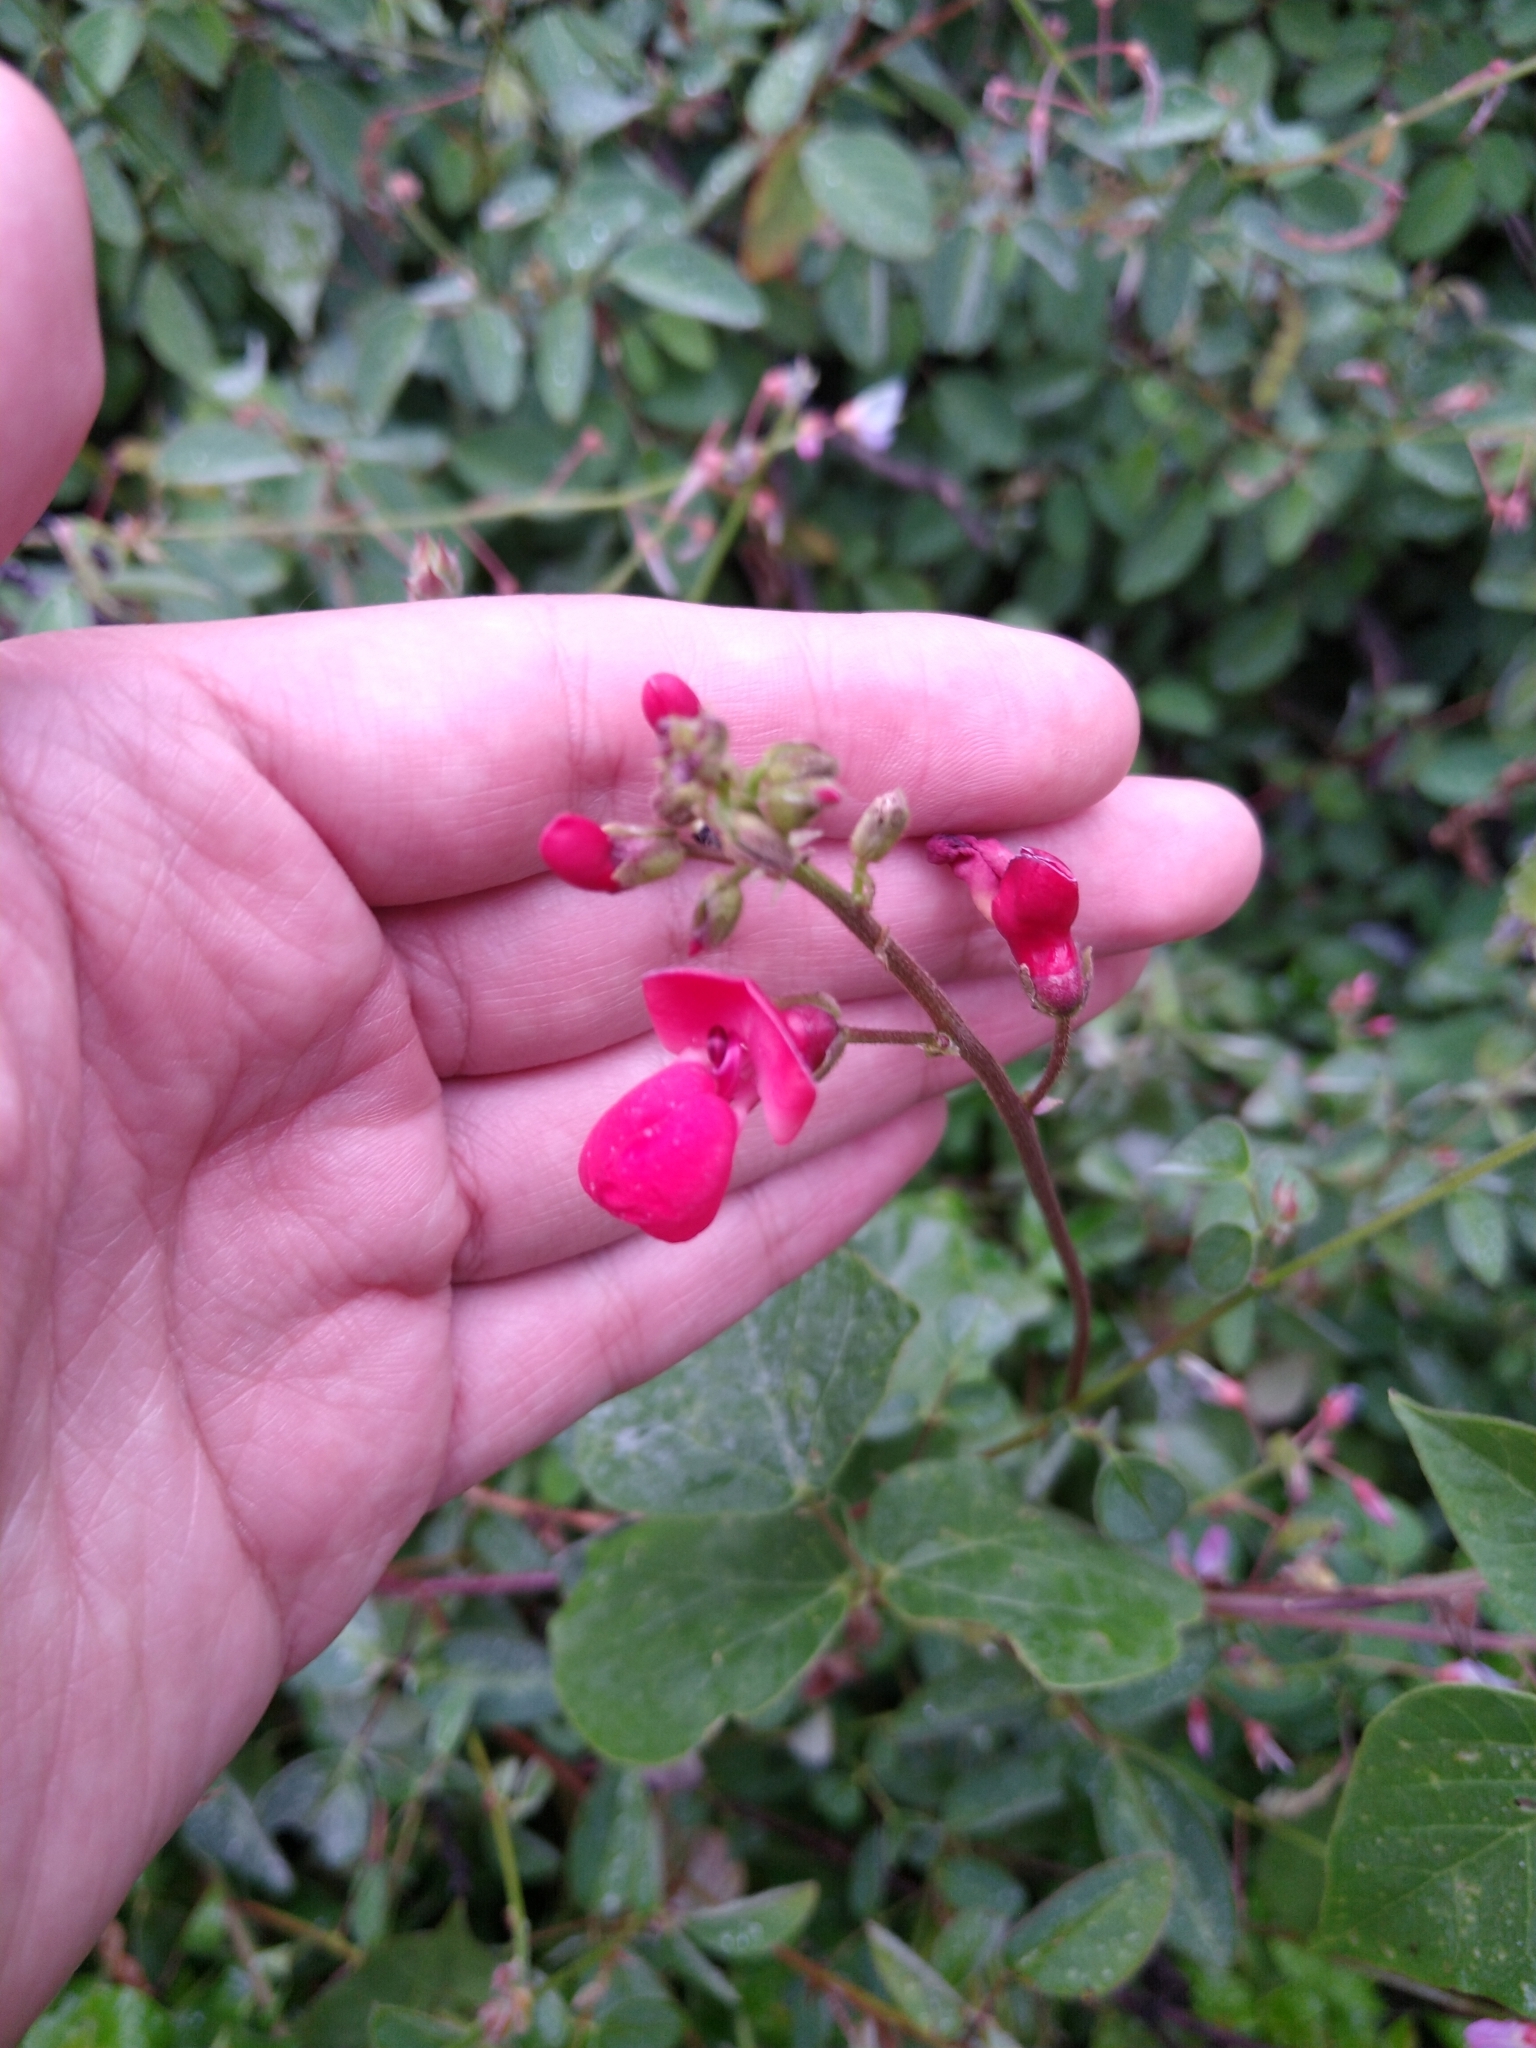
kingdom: Plantae
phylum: Tracheophyta
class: Magnoliopsida
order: Fabales
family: Fabaceae
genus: Phaseolus
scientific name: Phaseolus coccineus
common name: Runner bean
